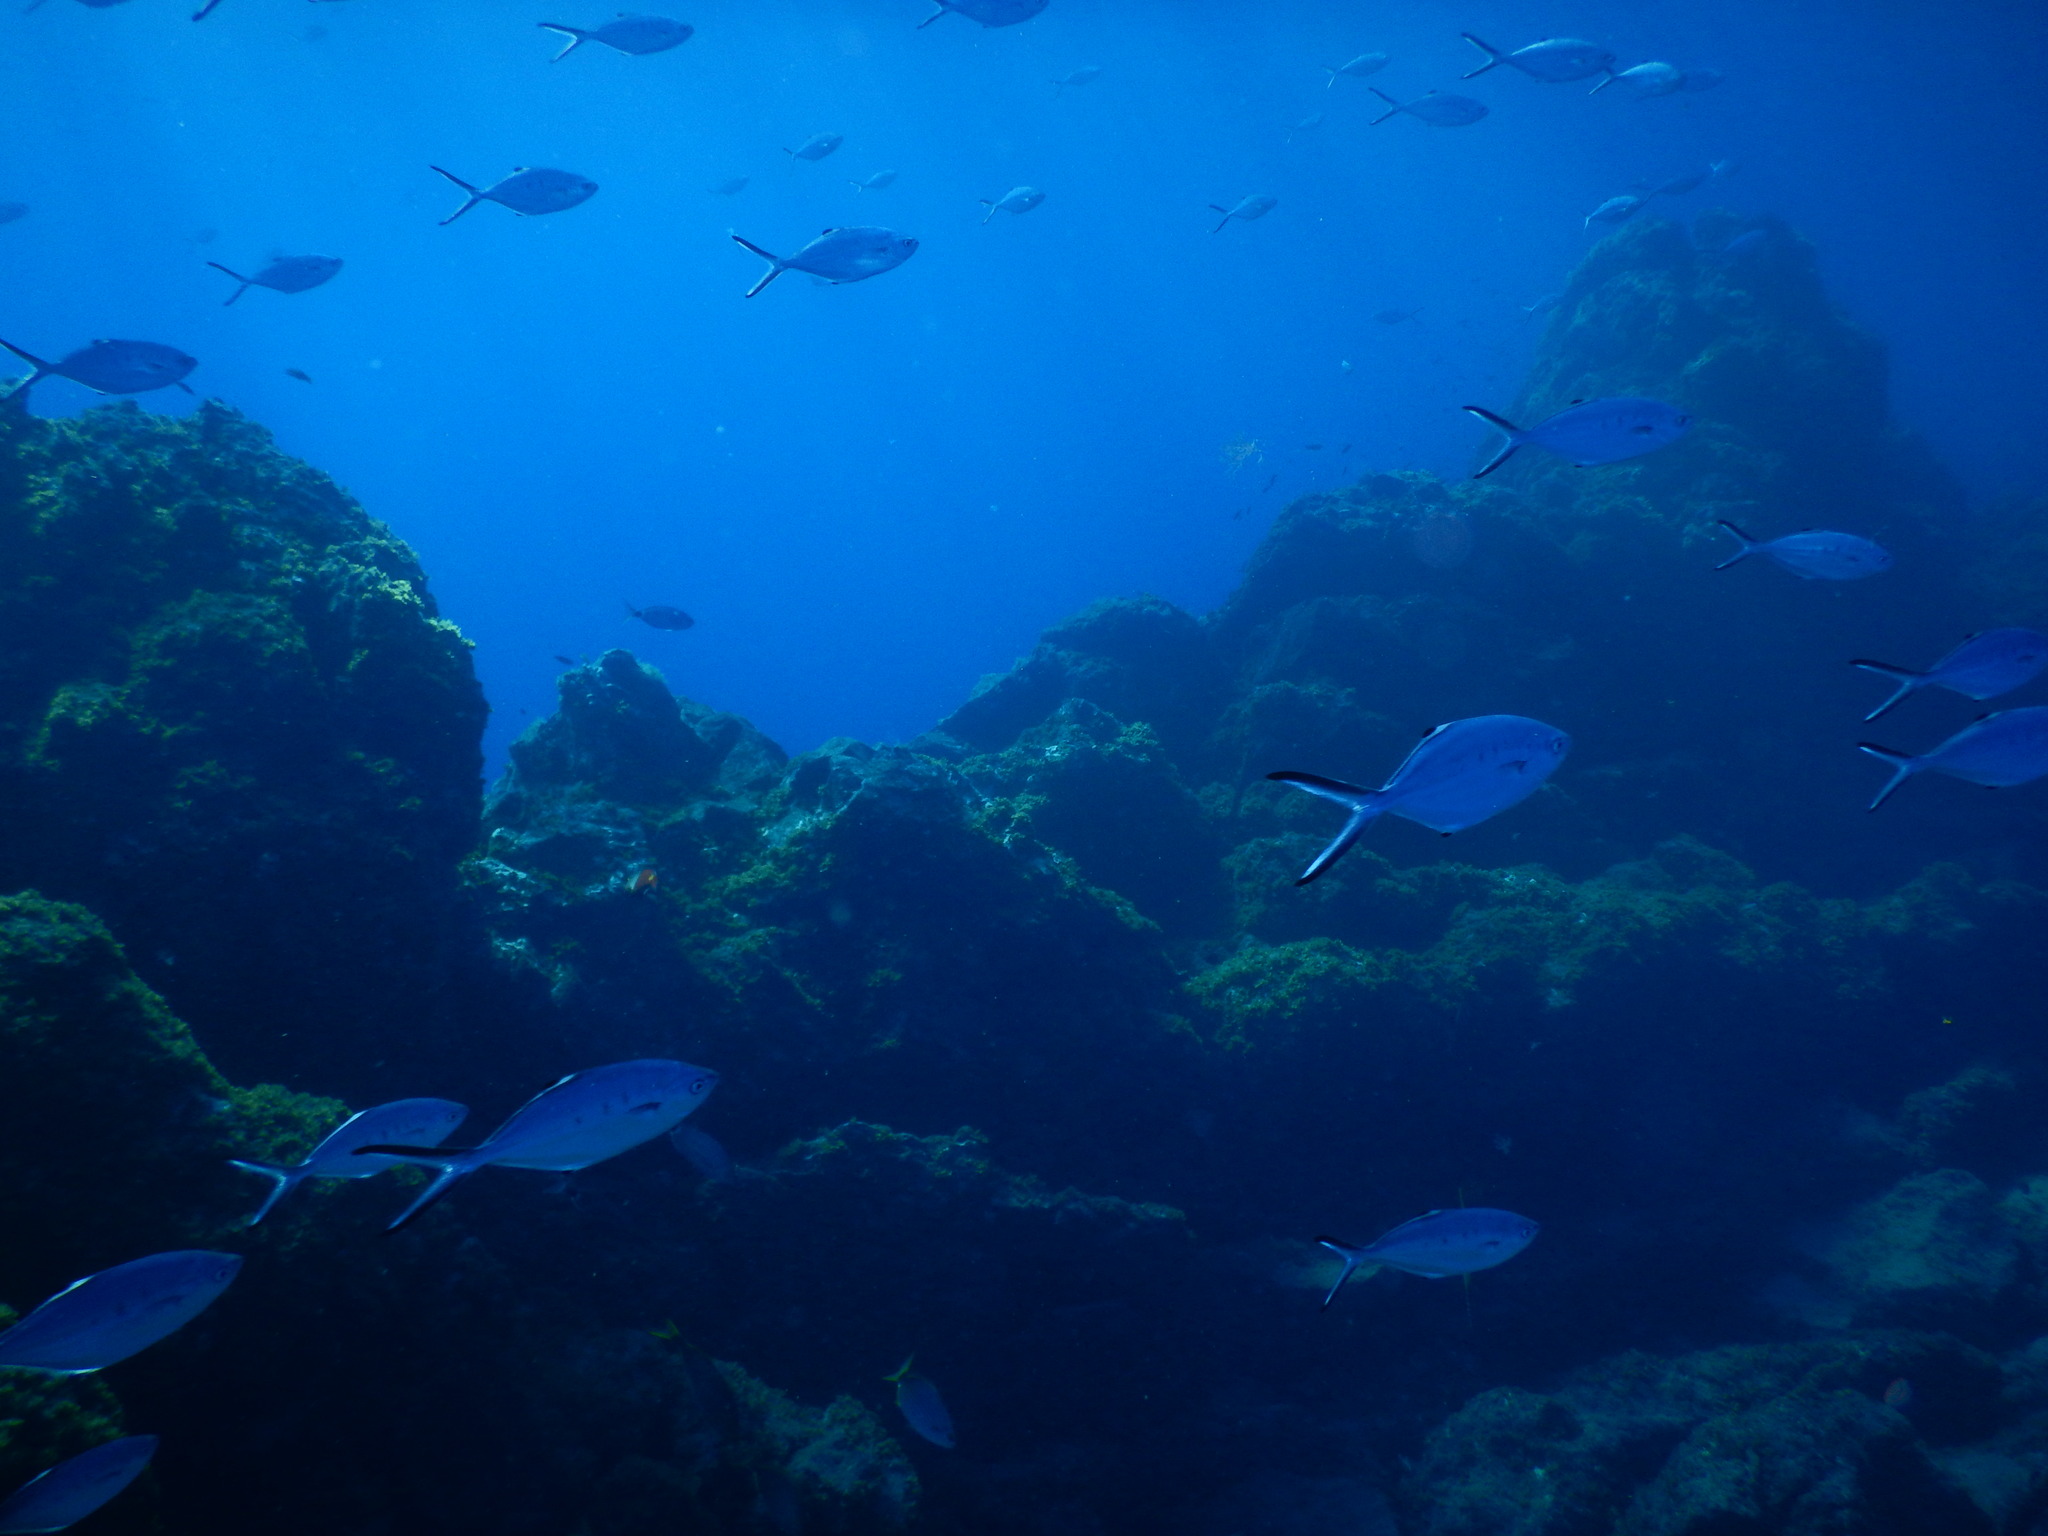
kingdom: Animalia
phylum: Chordata
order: Perciformes
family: Carangidae
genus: Trachinotus
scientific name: Trachinotus ovatus
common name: Pompano
